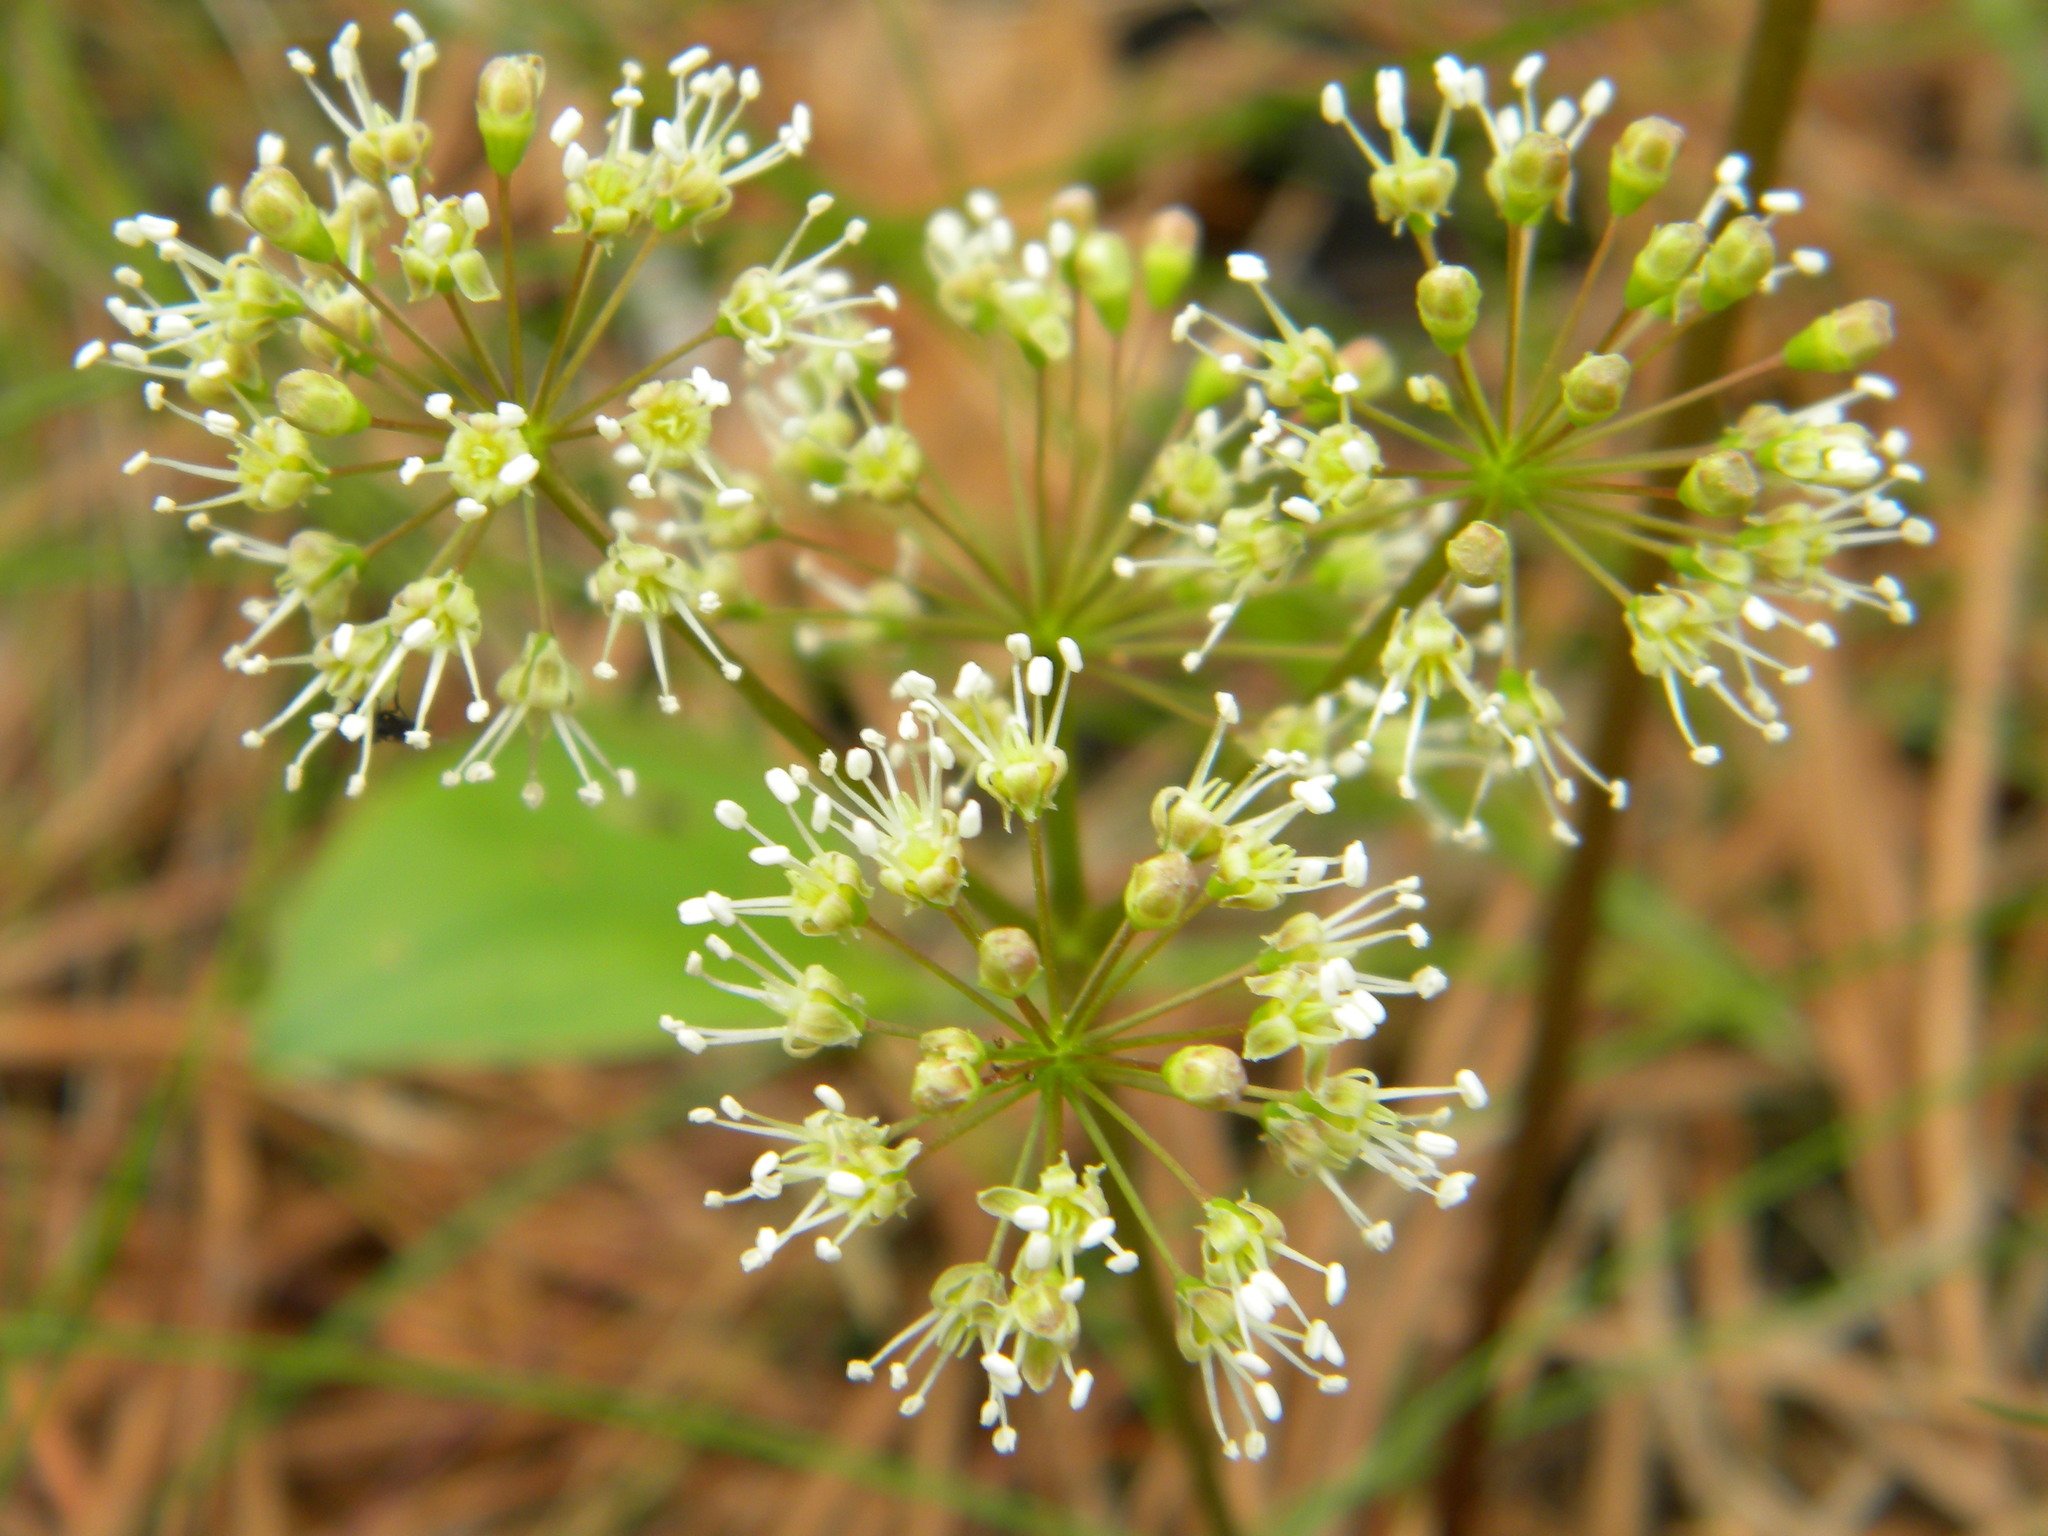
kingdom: Plantae
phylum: Tracheophyta
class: Magnoliopsida
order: Apiales
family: Araliaceae
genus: Aralia
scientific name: Aralia nudicaulis
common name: Wild sarsaparilla
